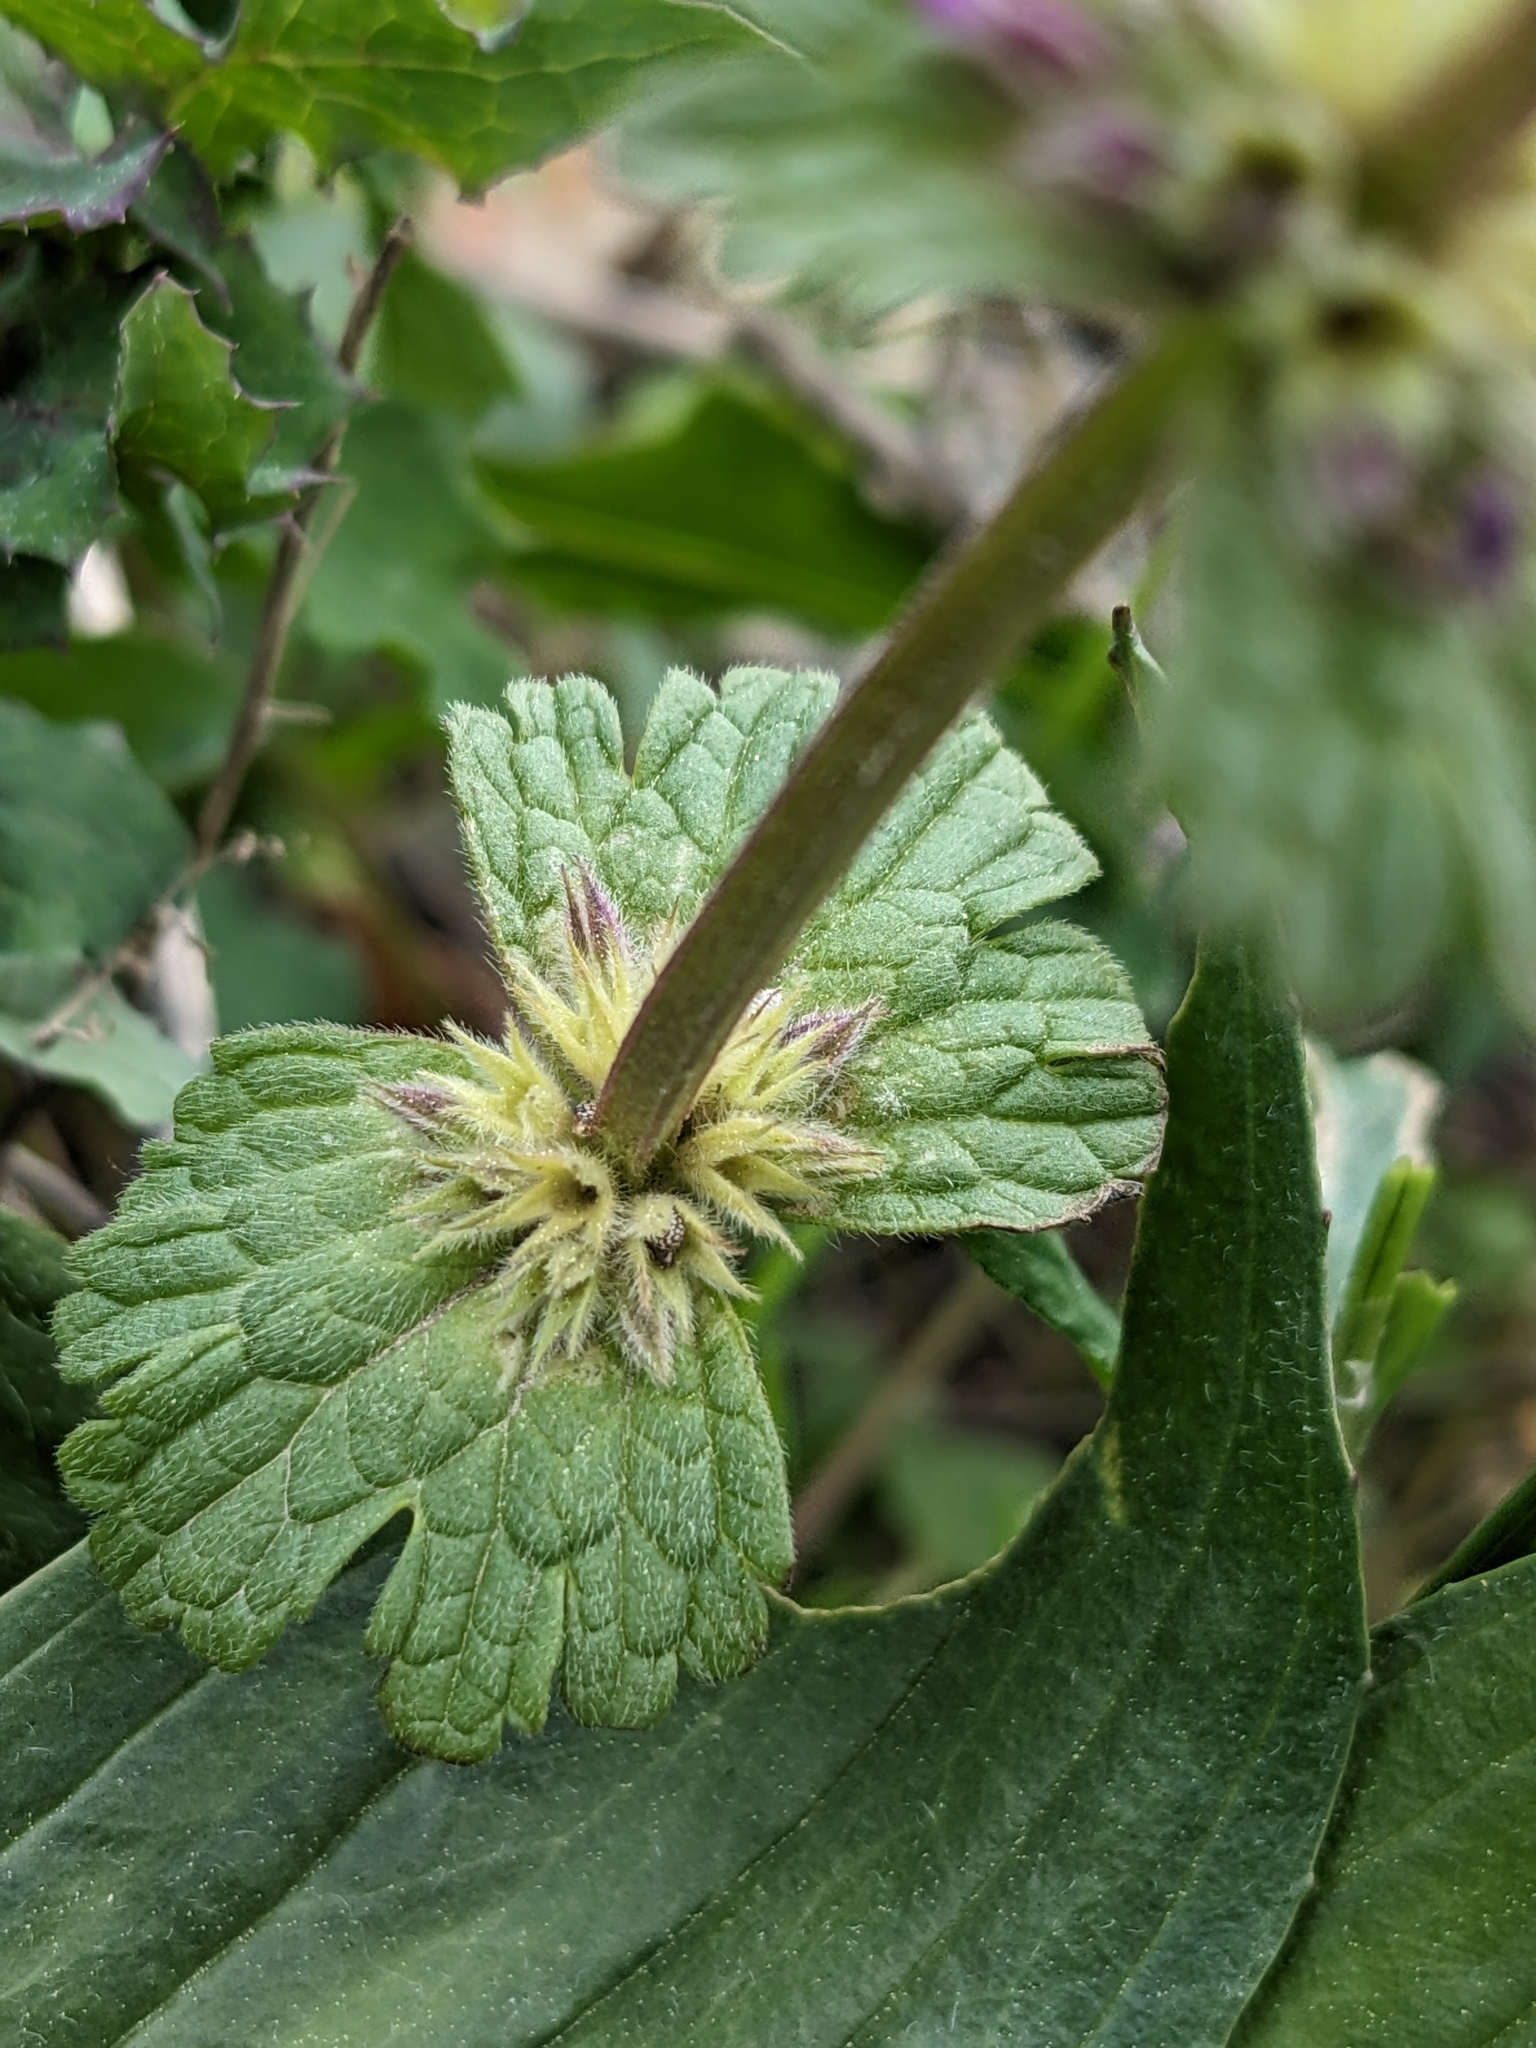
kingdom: Plantae
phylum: Tracheophyta
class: Magnoliopsida
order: Lamiales
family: Lamiaceae
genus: Lamium
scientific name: Lamium amplexicaule
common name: Henbit dead-nettle
